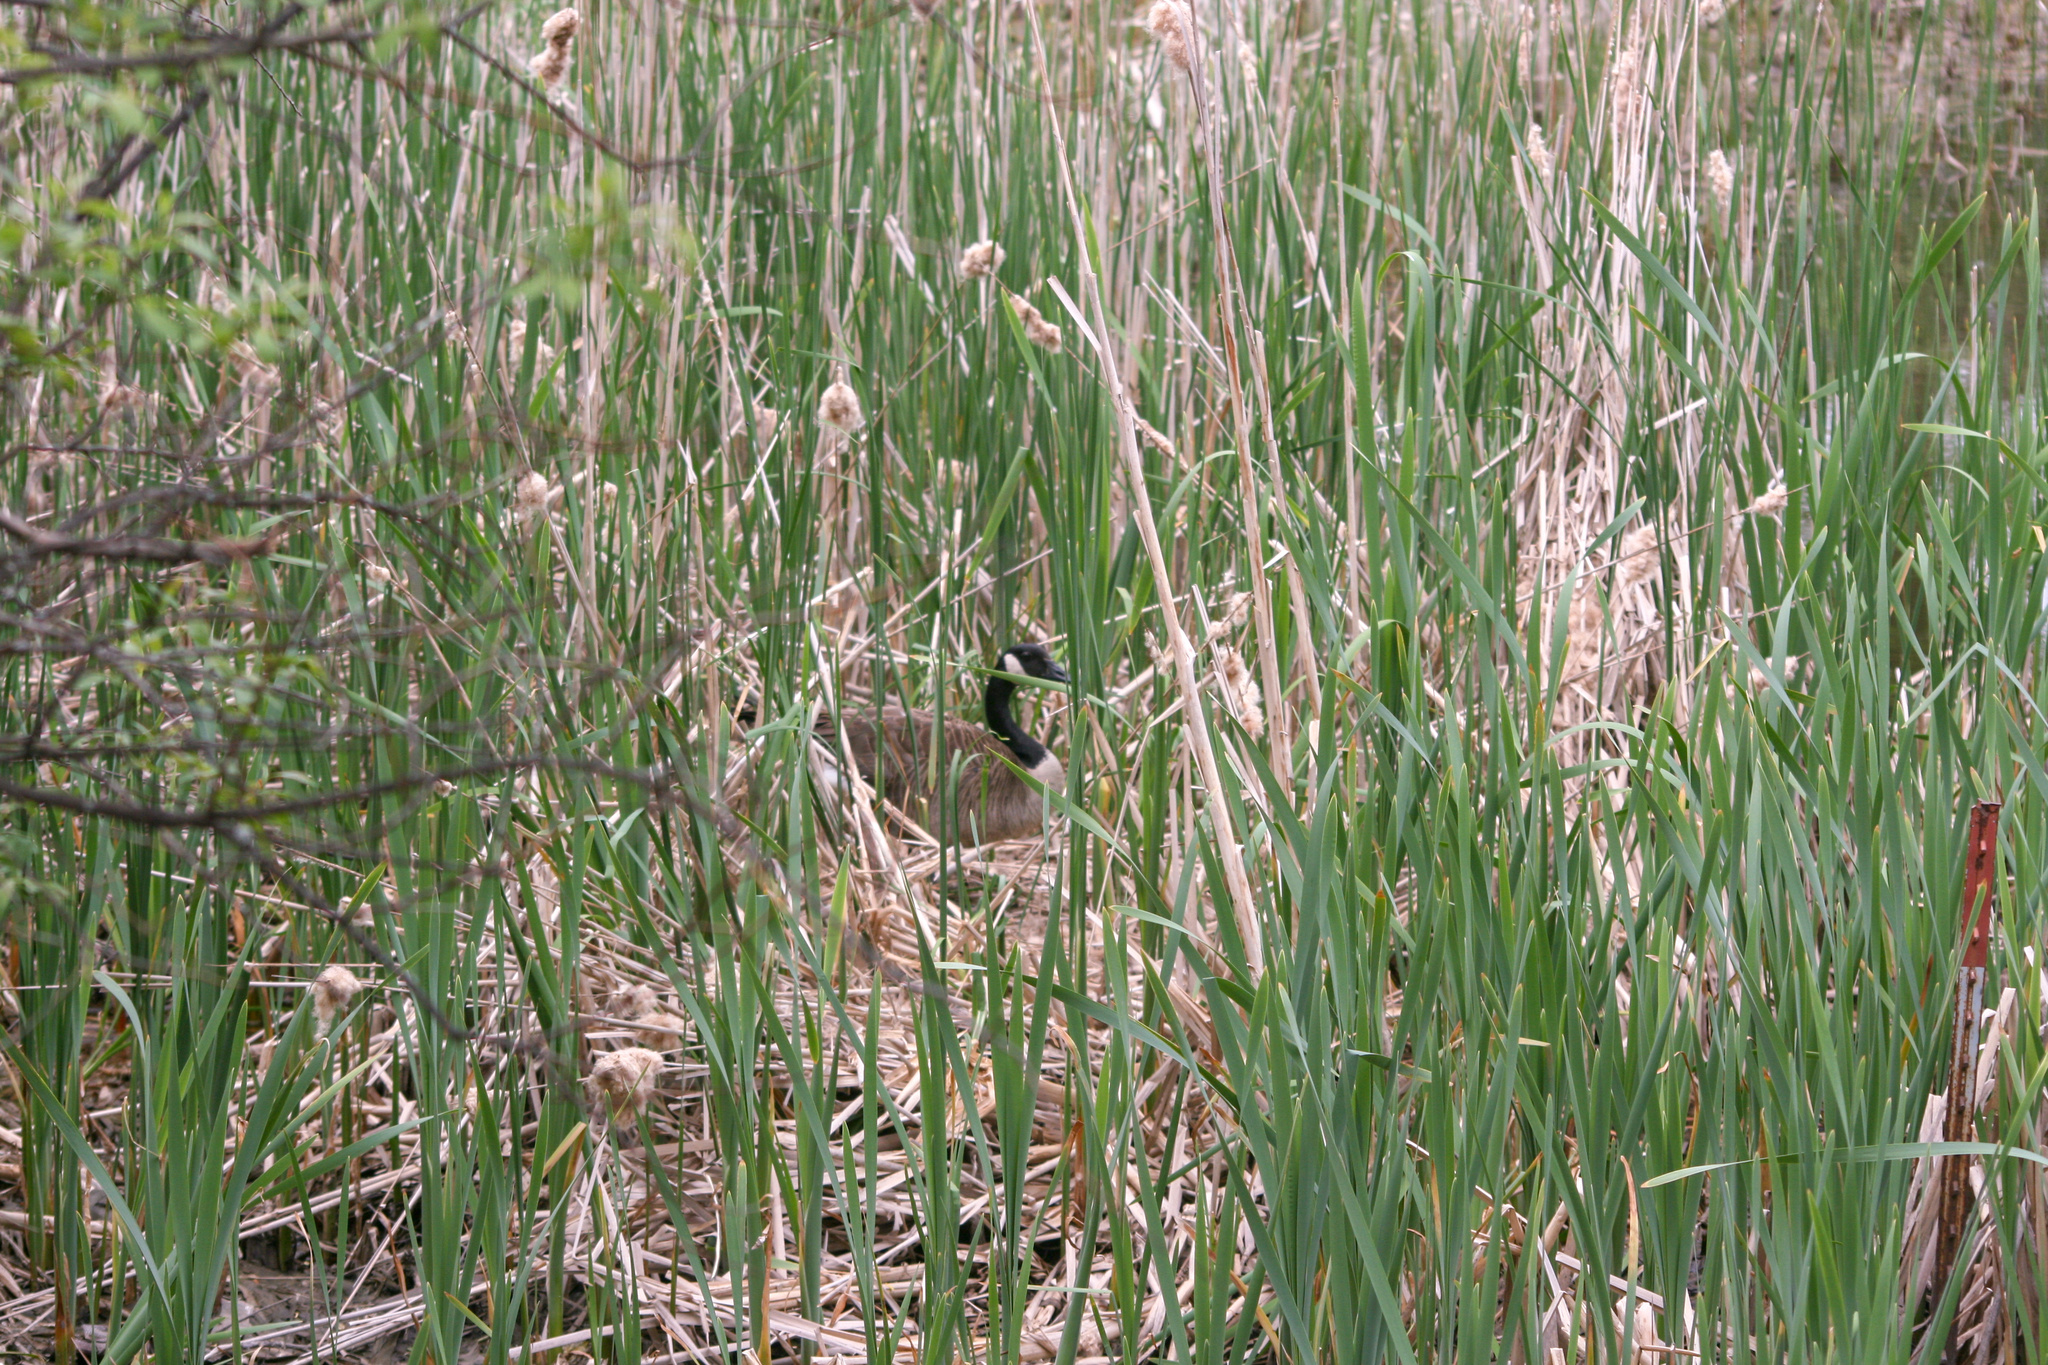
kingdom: Animalia
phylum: Chordata
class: Aves
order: Anseriformes
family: Anatidae
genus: Branta
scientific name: Branta canadensis
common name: Canada goose
